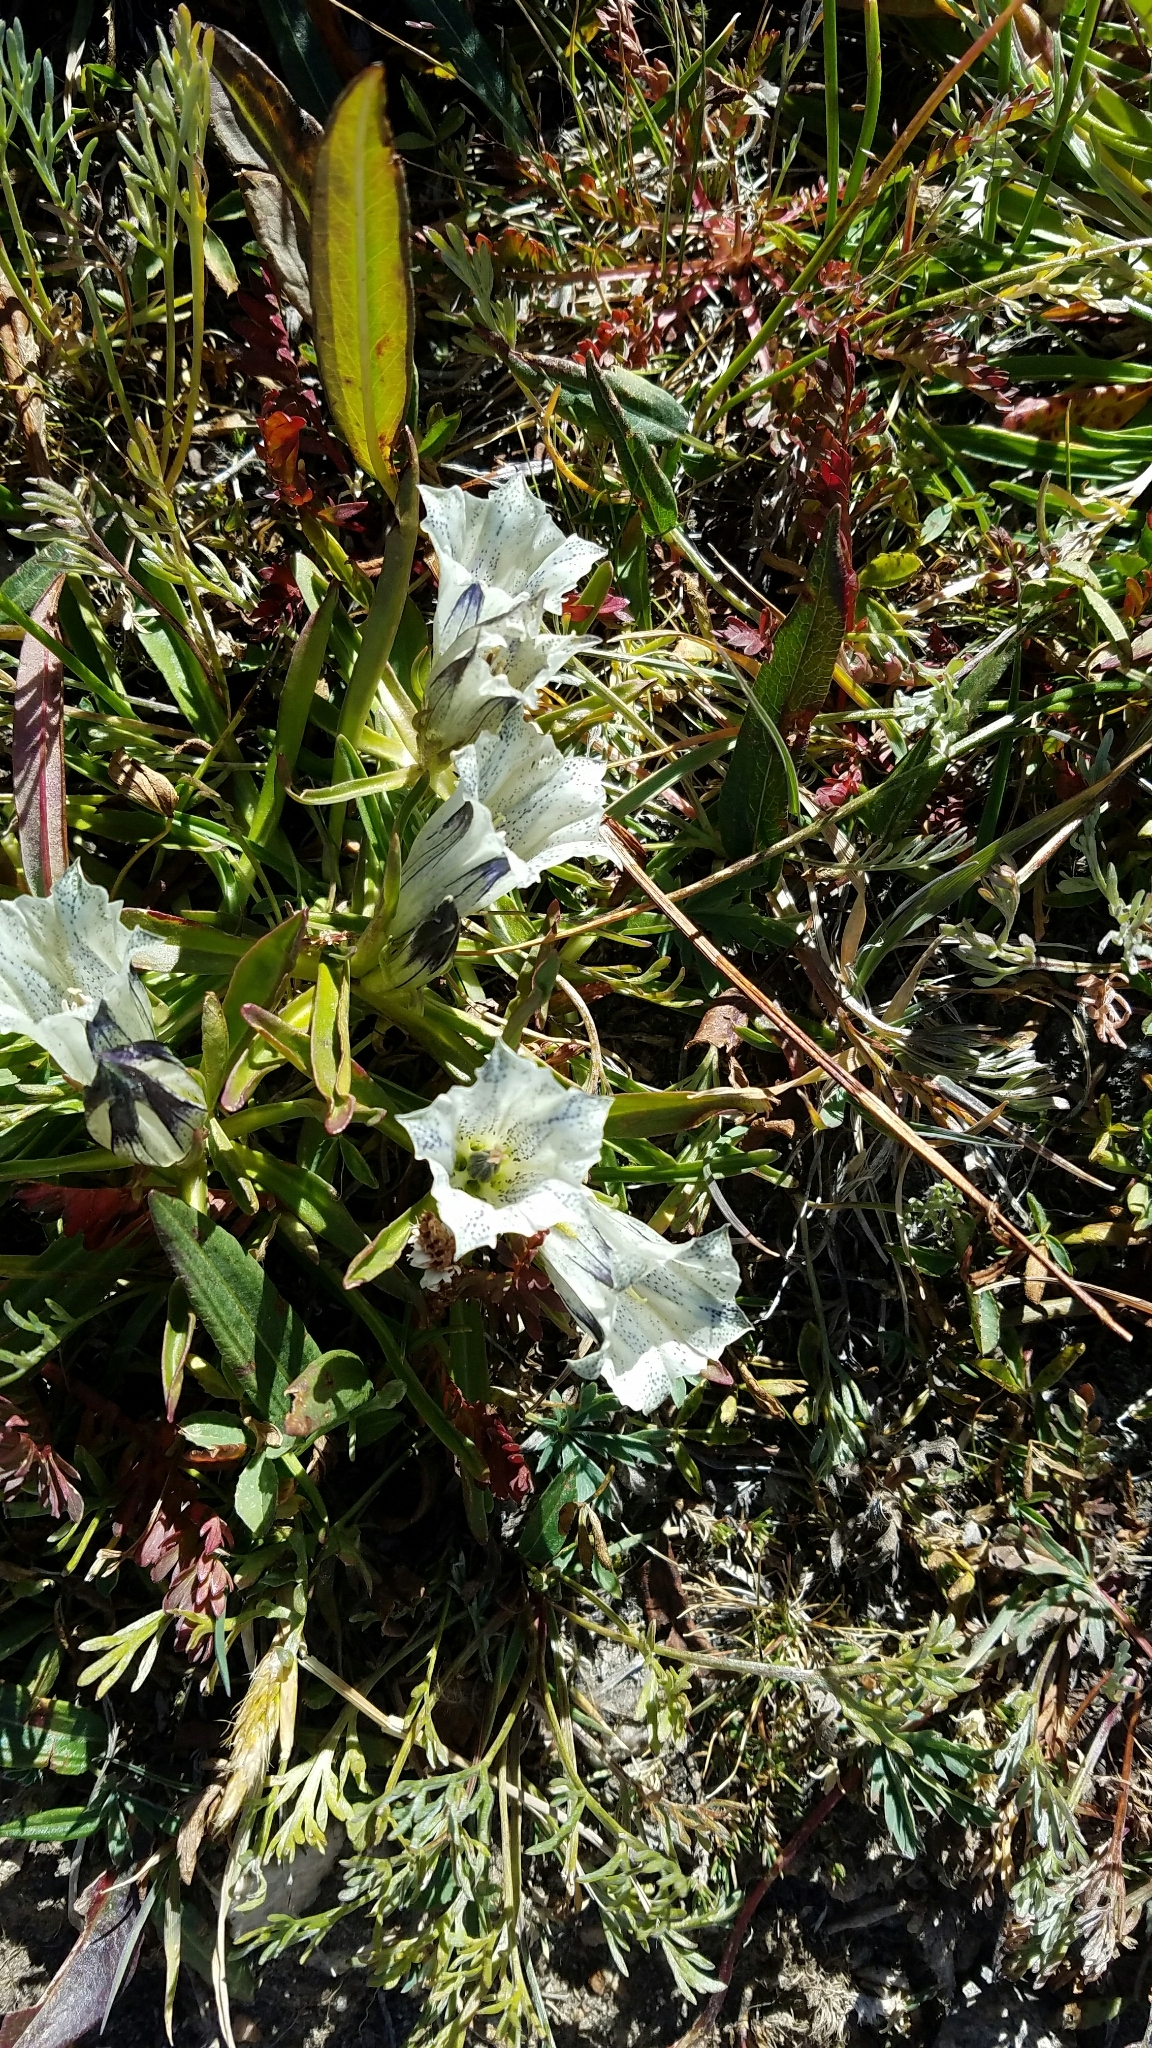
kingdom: Plantae
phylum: Tracheophyta
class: Magnoliopsida
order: Gentianales
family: Gentianaceae
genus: Gentiana
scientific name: Gentiana algida
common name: Arctic gentian
